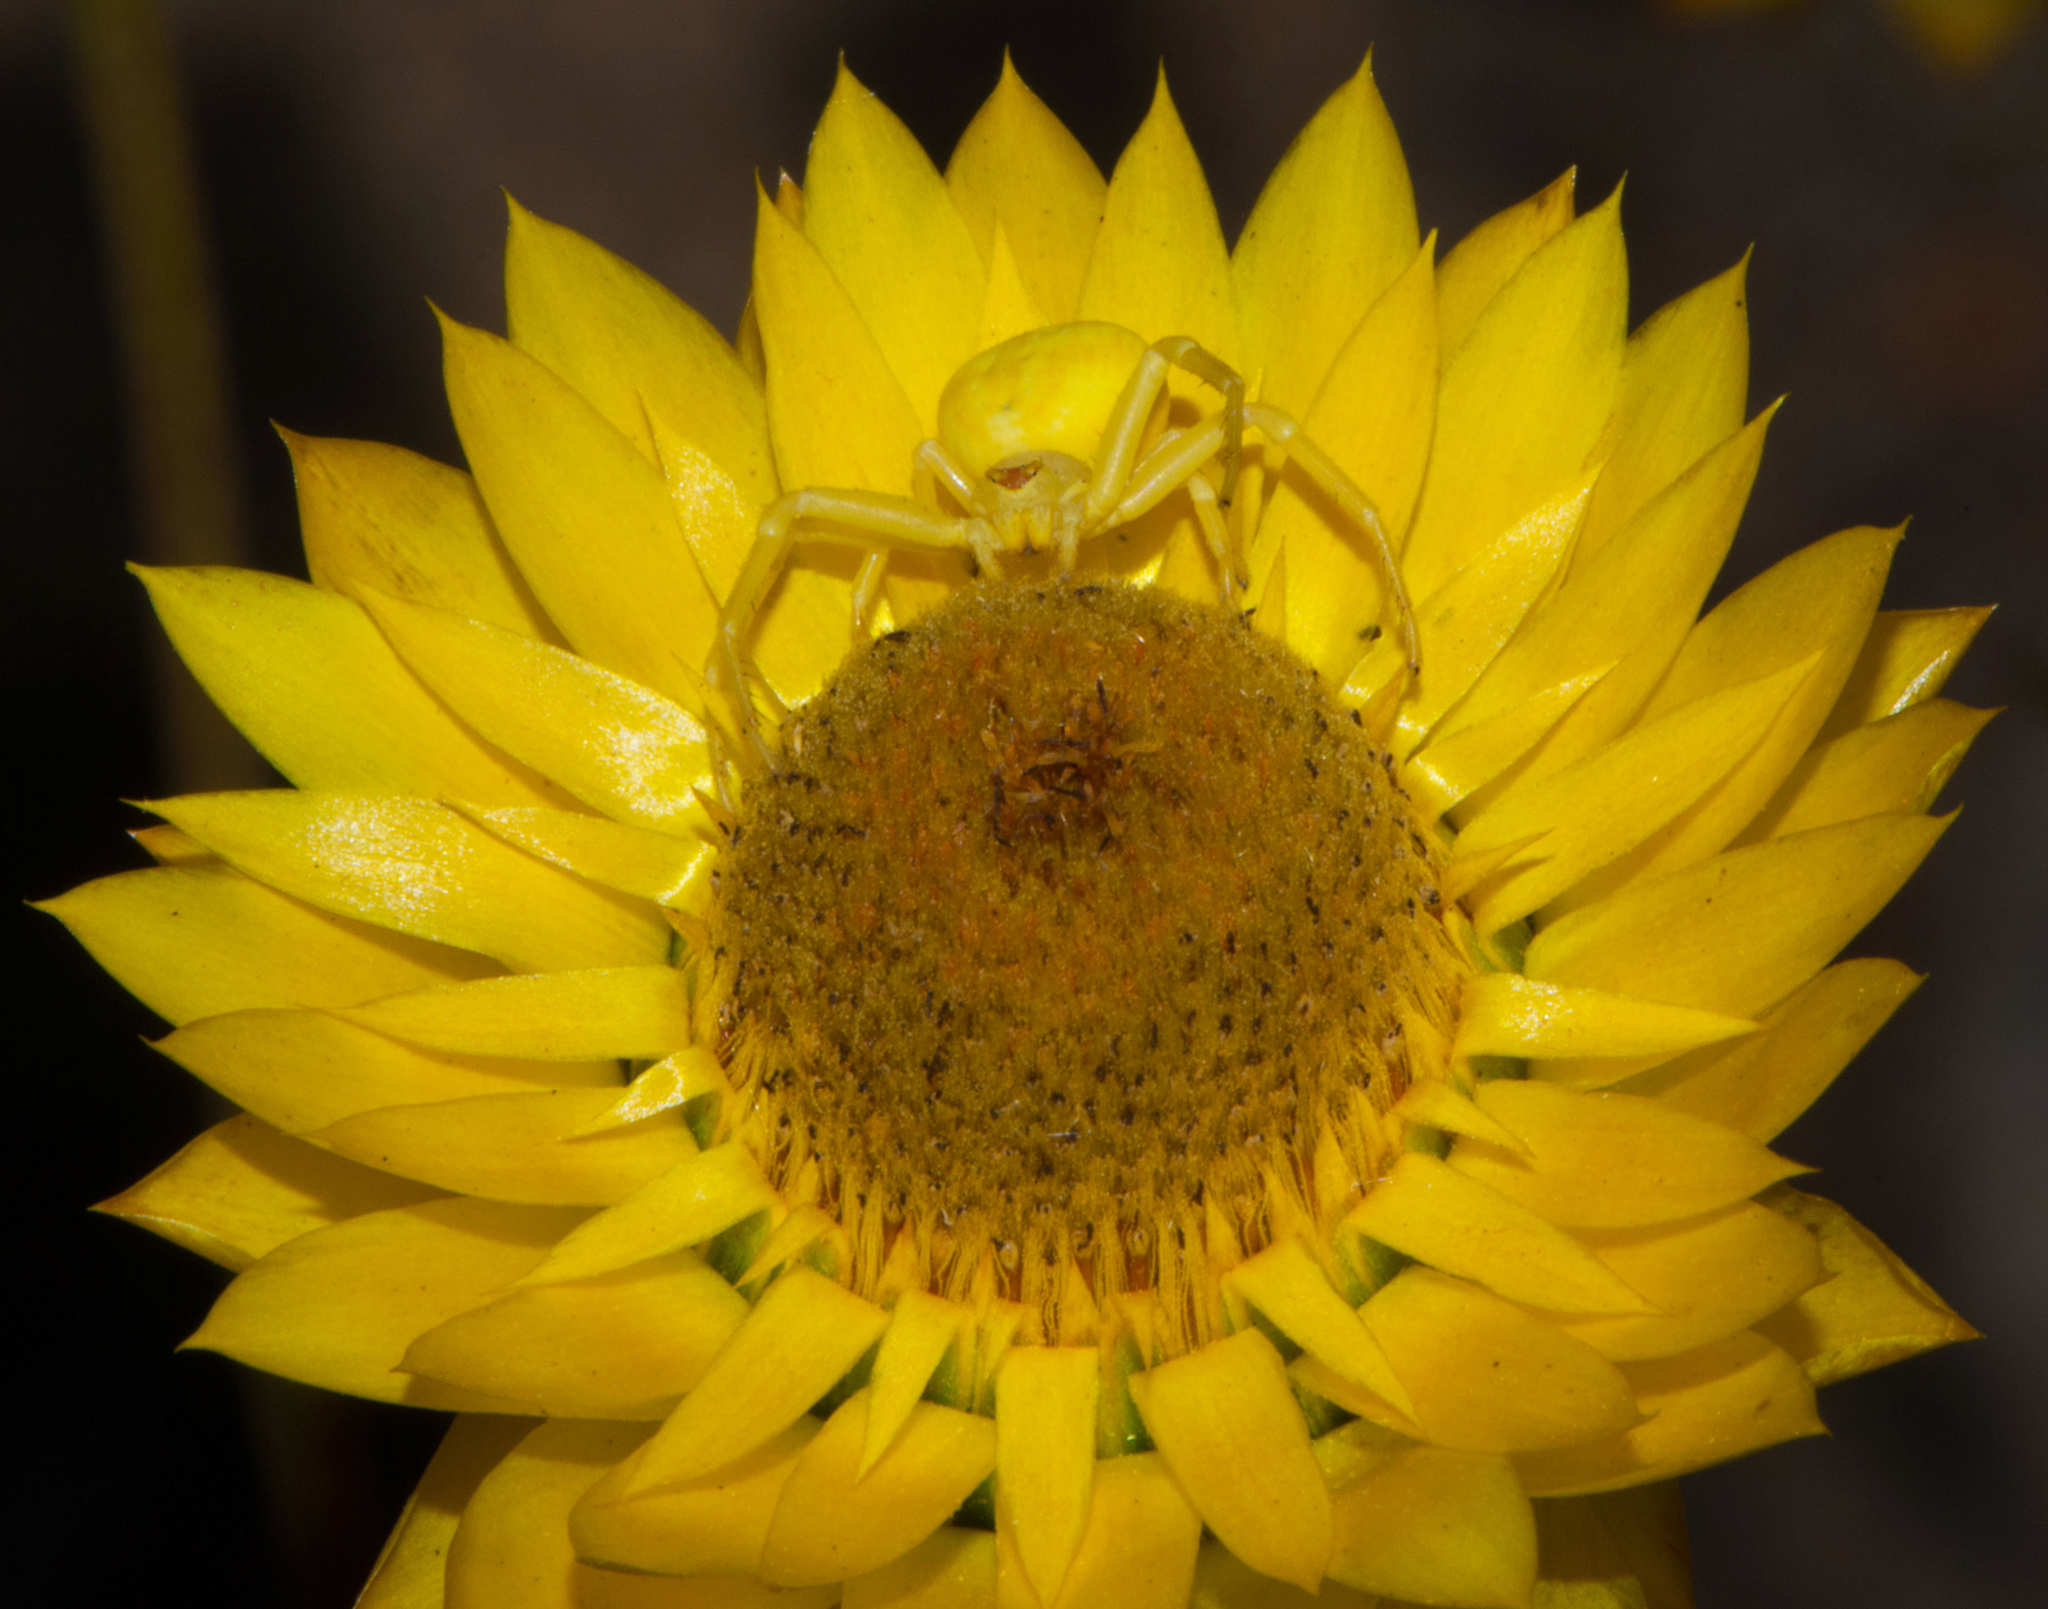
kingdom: Animalia
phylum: Arthropoda
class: Arachnida
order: Araneae
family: Thomisidae
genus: Zygometis
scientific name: Zygometis xanthogaster
